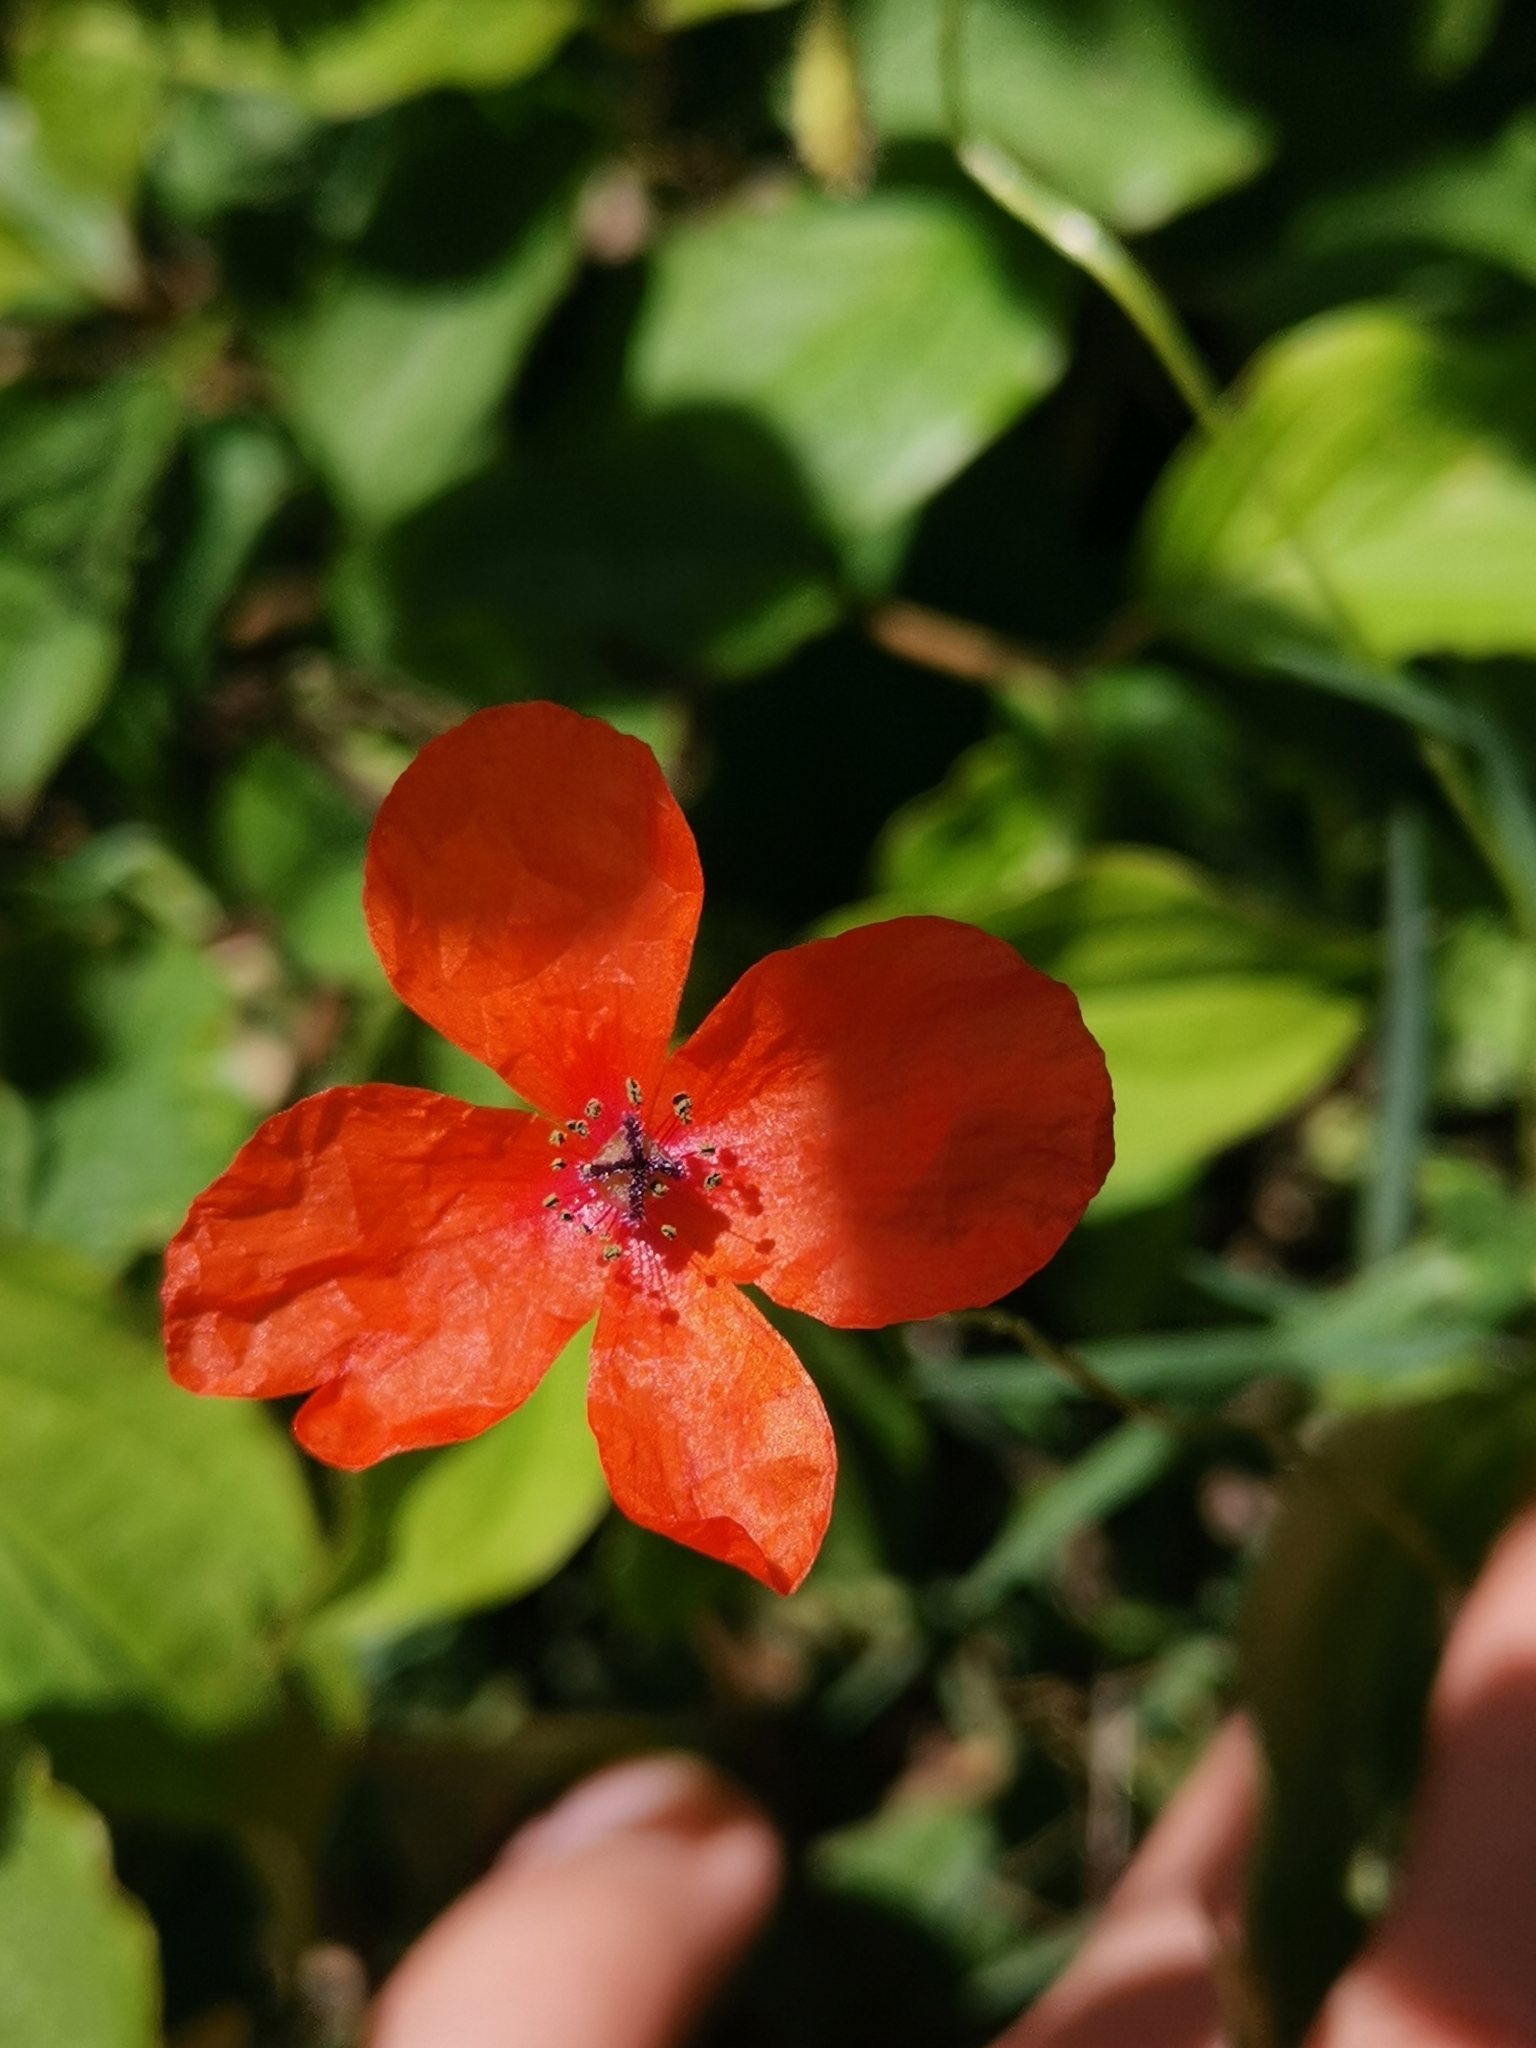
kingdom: Plantae
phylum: Tracheophyta
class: Magnoliopsida
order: Ranunculales
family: Papaveraceae
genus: Papaver
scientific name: Papaver dubium
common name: Long-headed poppy
